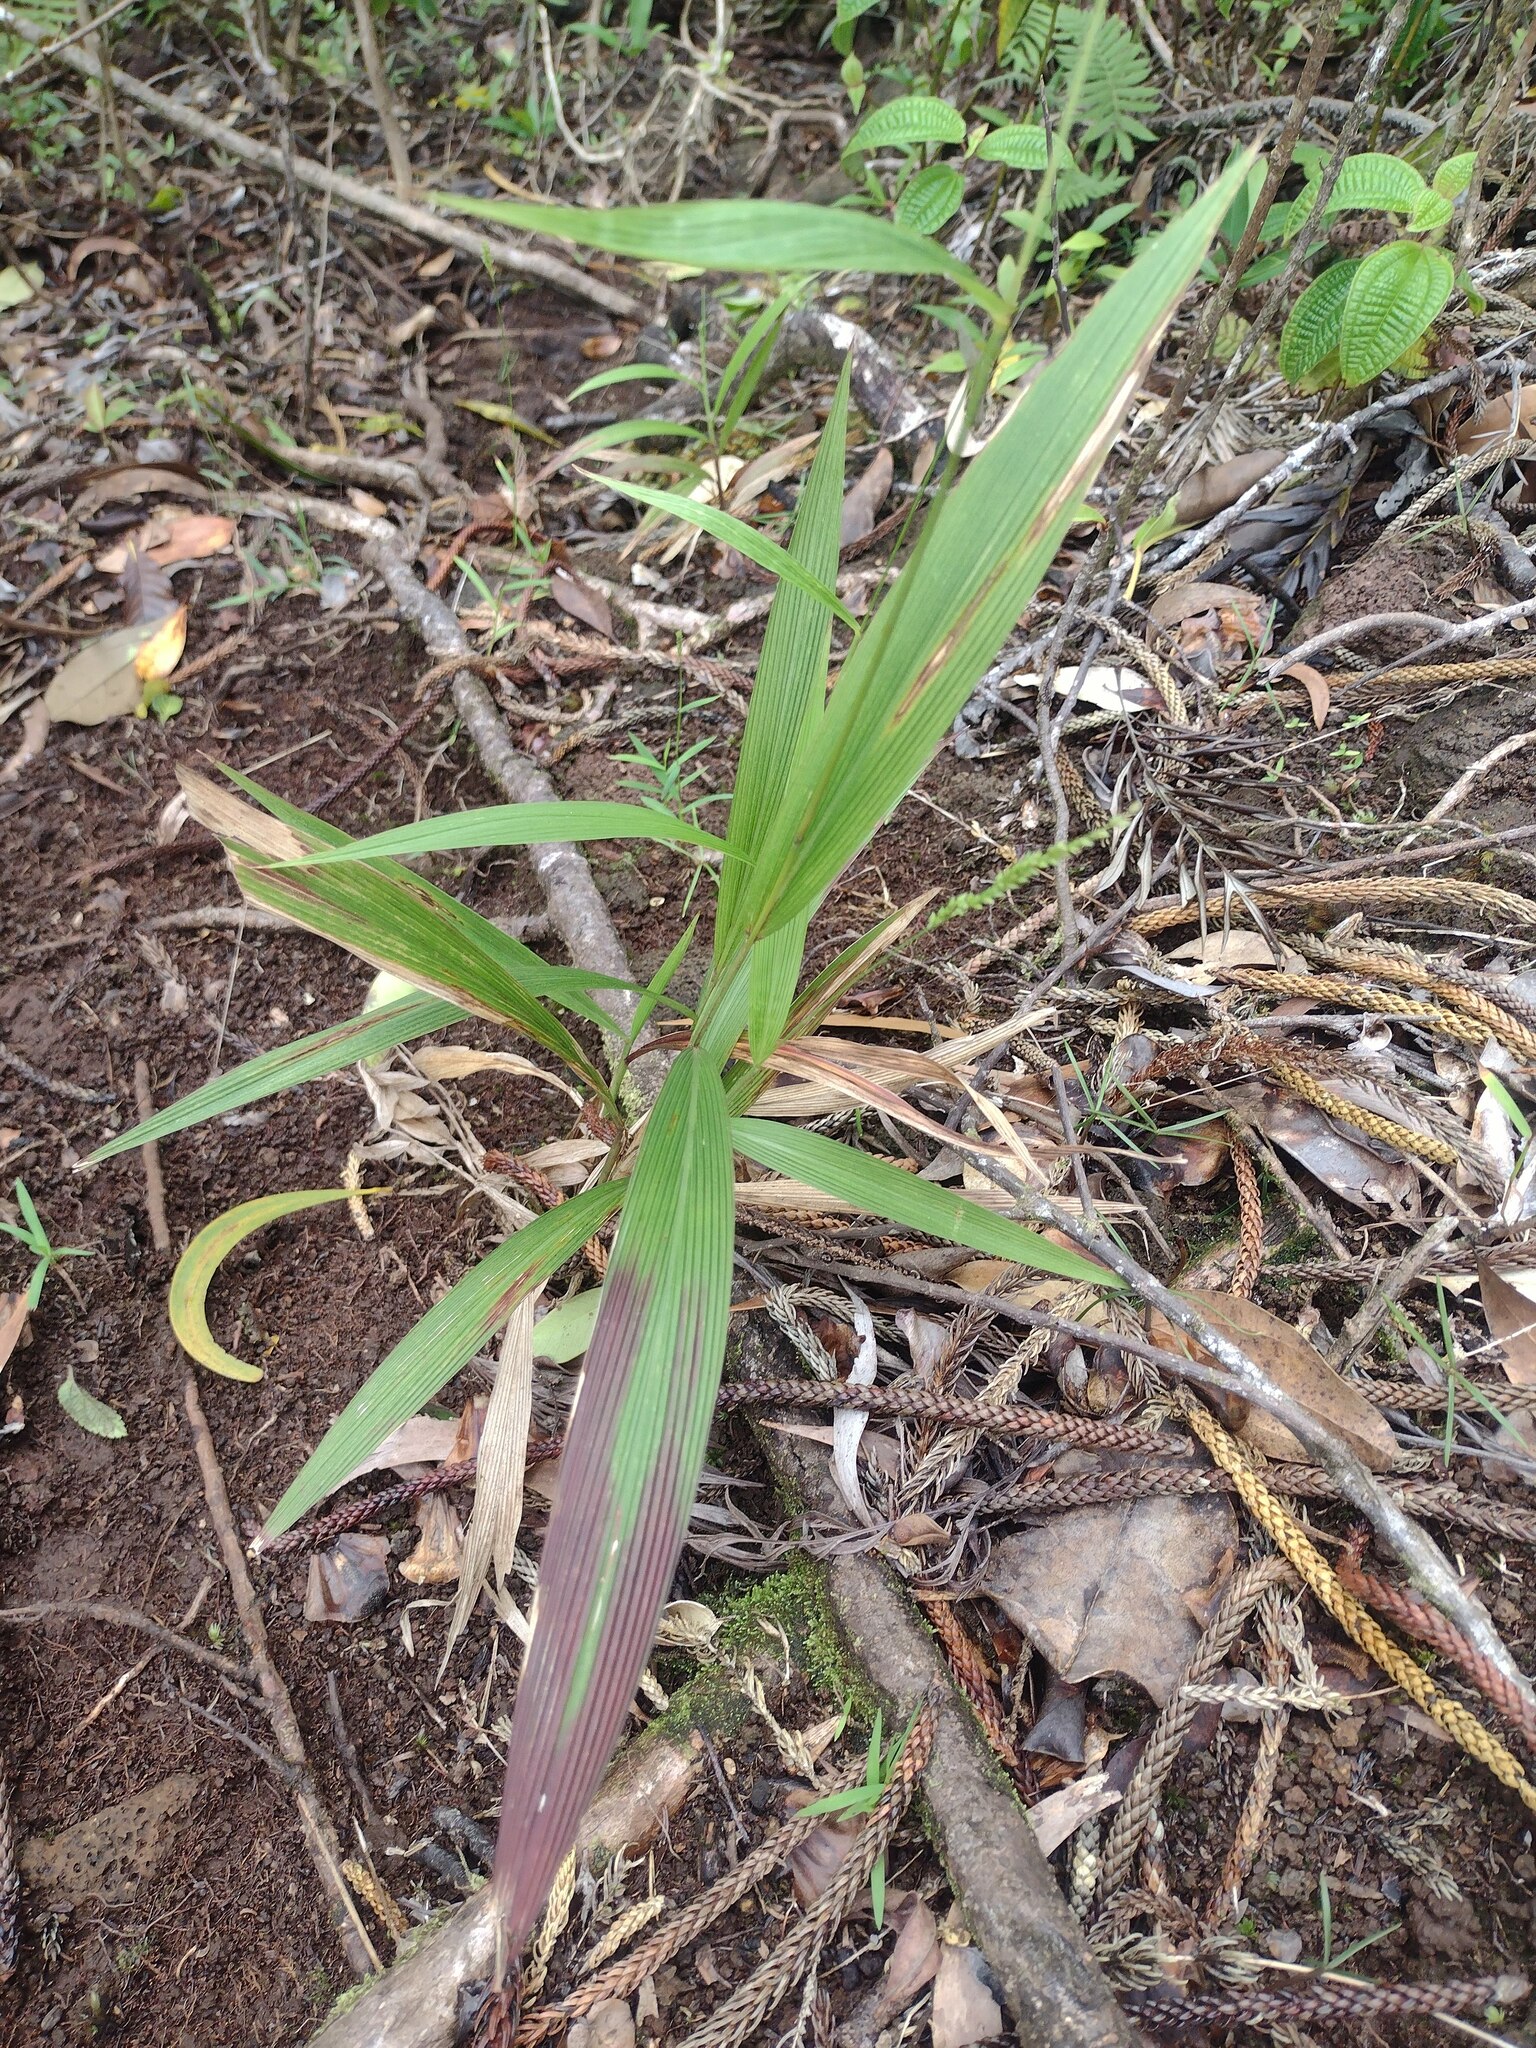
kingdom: Plantae
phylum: Tracheophyta
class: Liliopsida
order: Poales
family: Poaceae
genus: Setaria
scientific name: Setaria palmifolia
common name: Broadleaved bristlegrass
